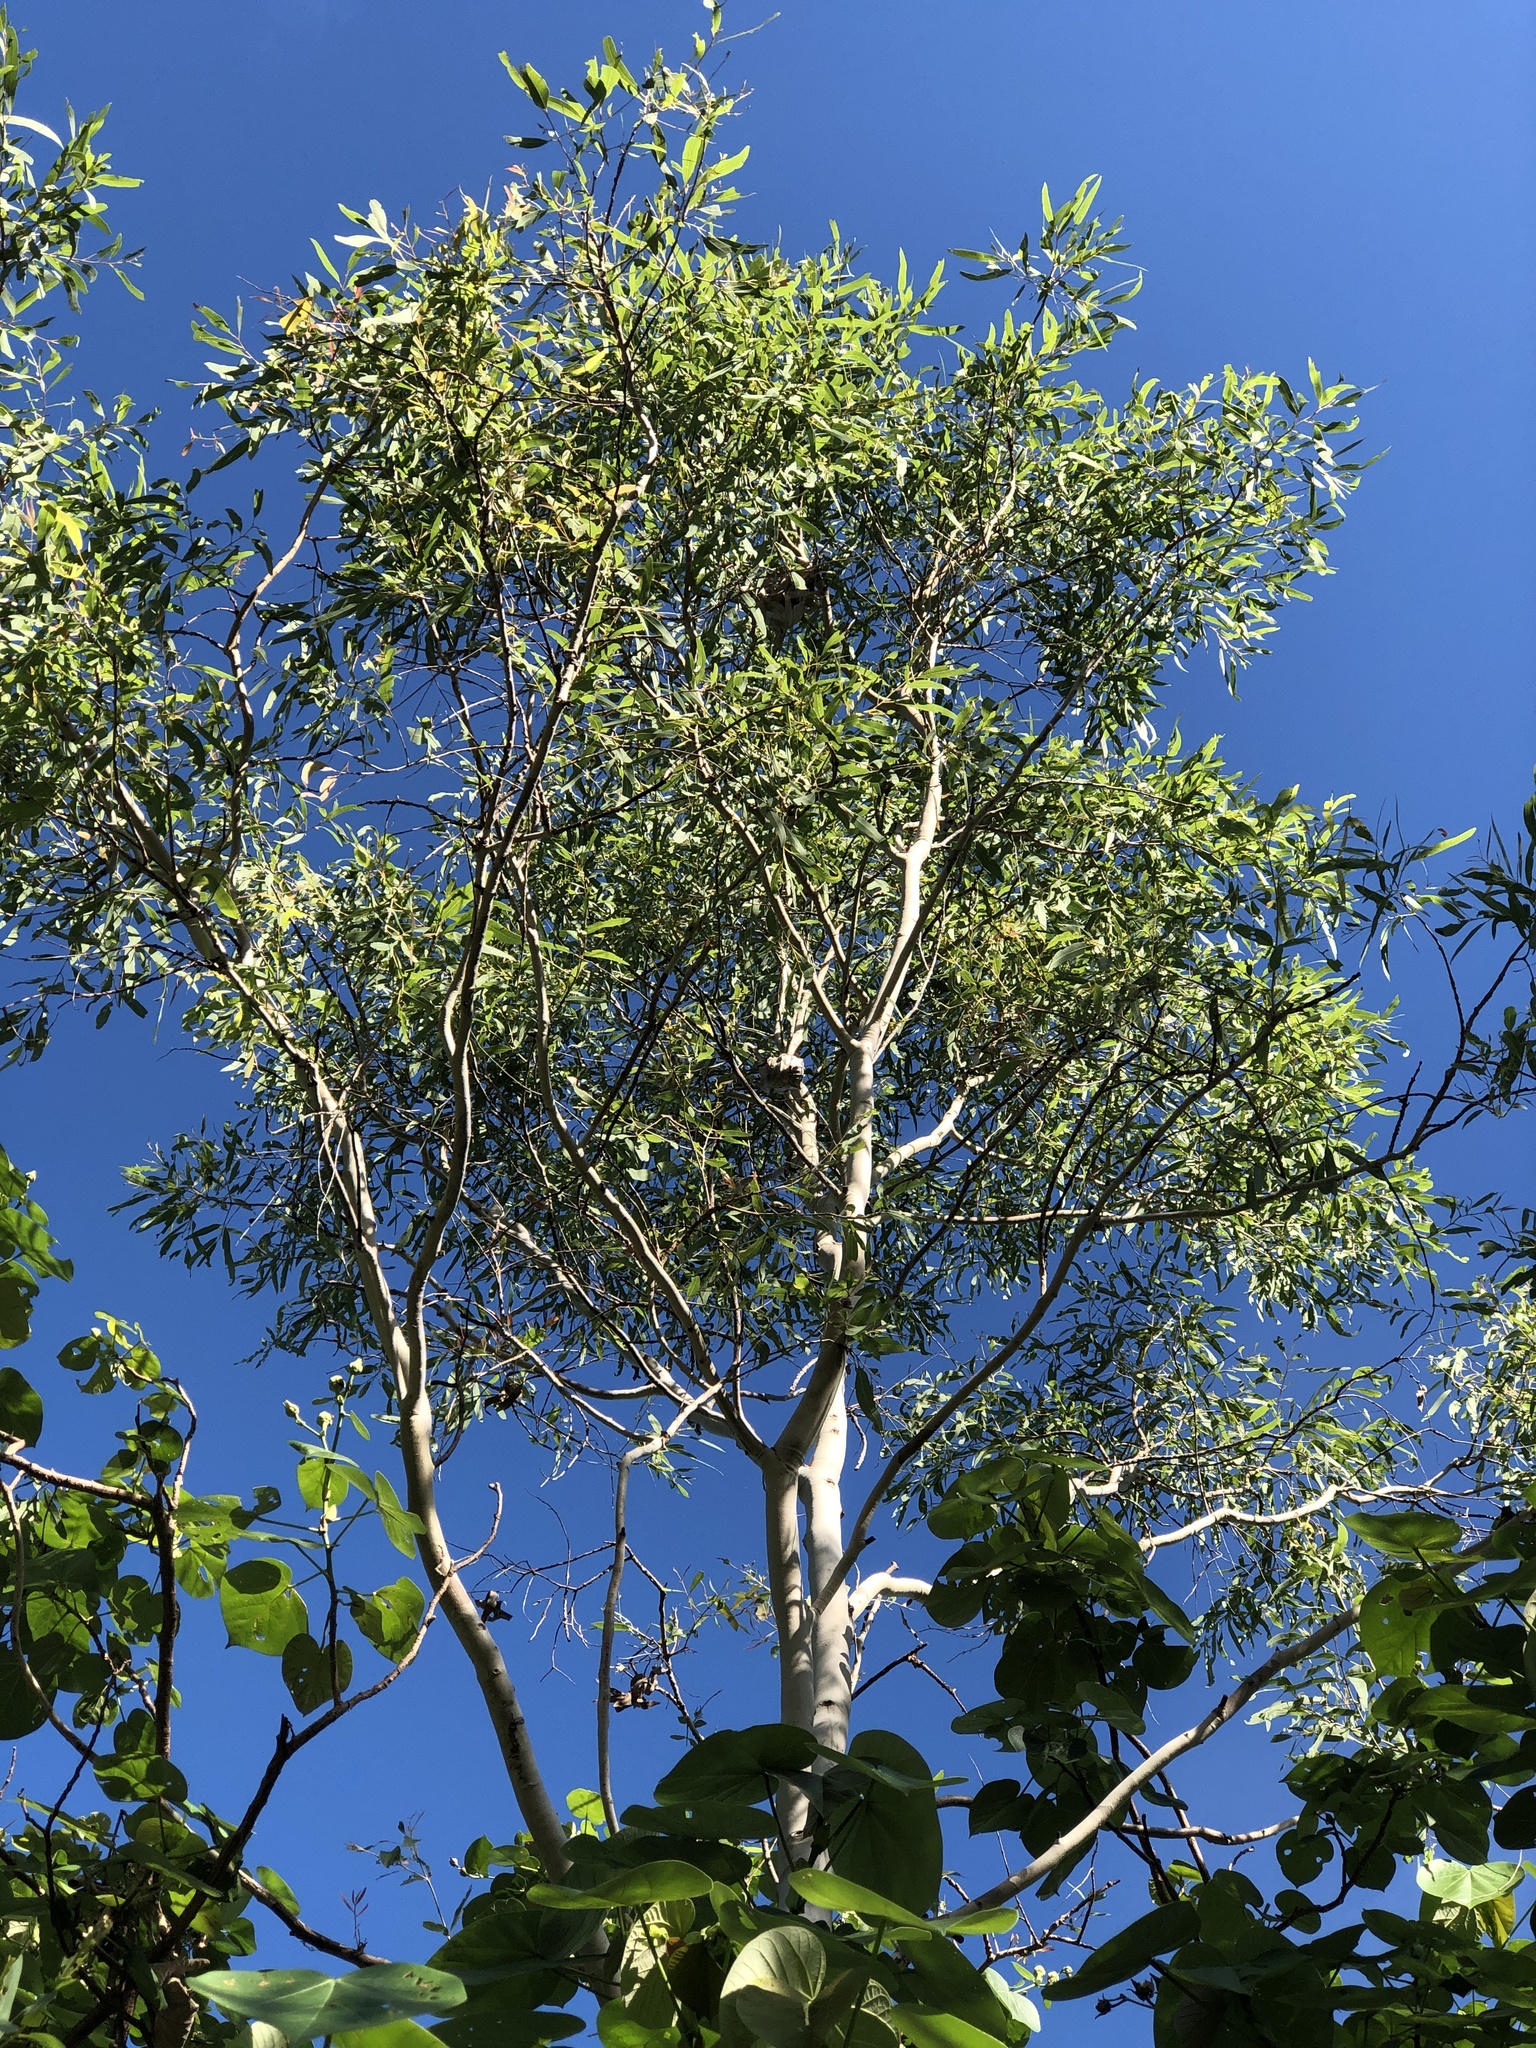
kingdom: Plantae
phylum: Tracheophyta
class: Magnoliopsida
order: Myrtales
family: Myrtaceae
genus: Corymbia
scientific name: Corymbia tessellaris
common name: Carbeen
